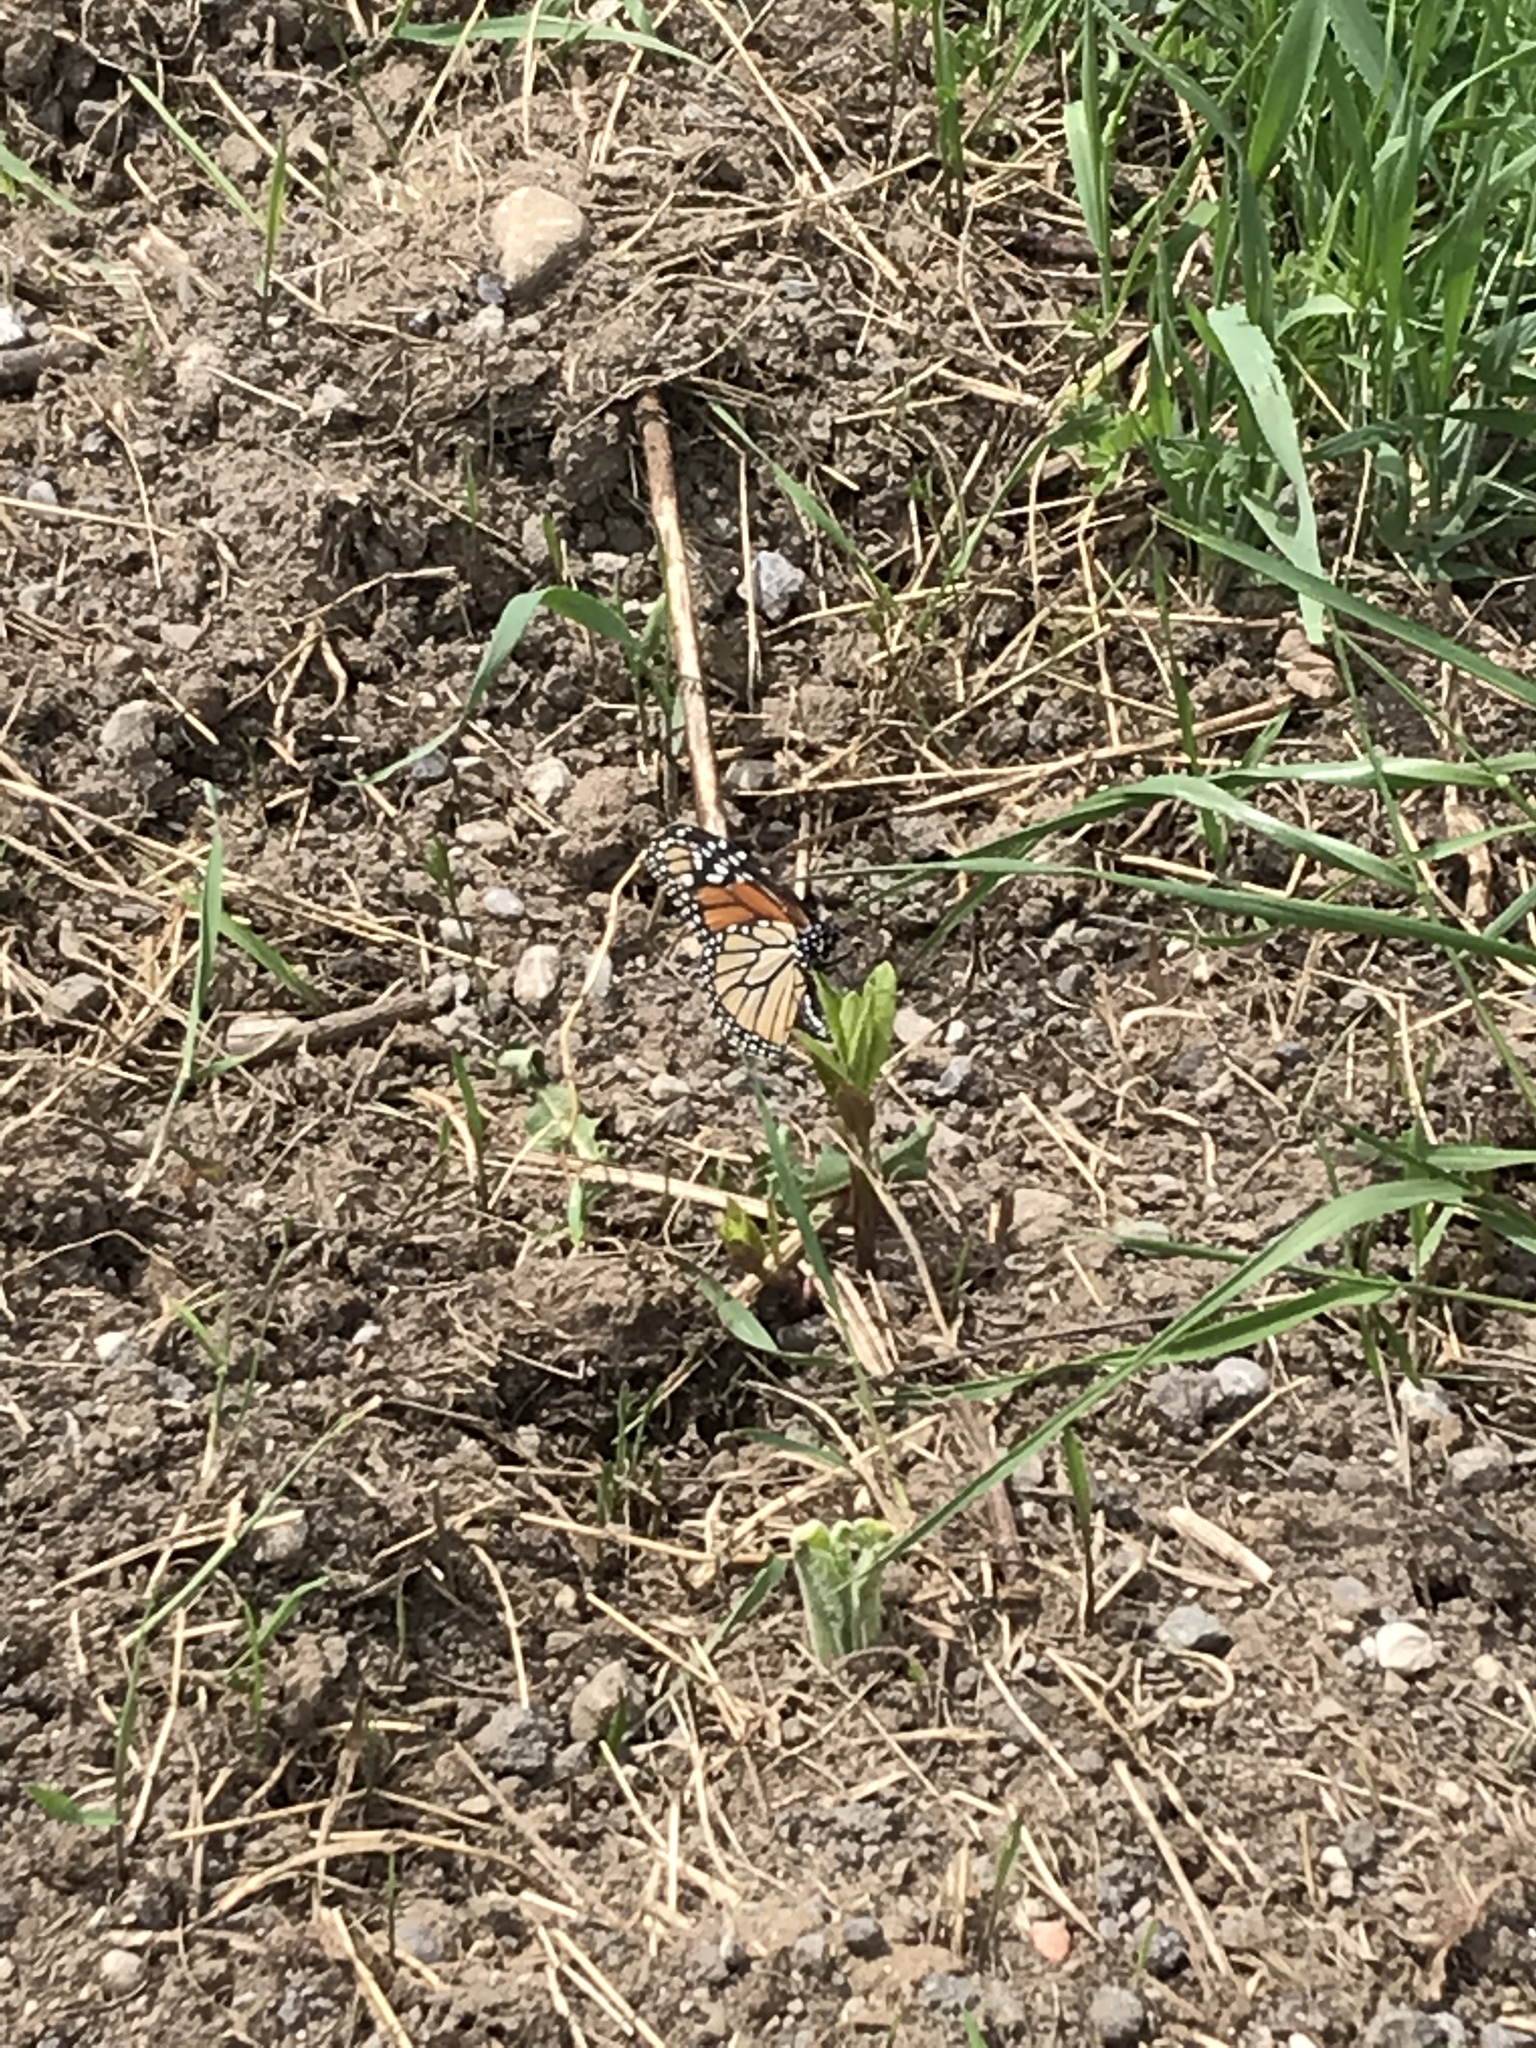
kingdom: Animalia
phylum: Arthropoda
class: Insecta
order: Lepidoptera
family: Nymphalidae
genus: Danaus
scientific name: Danaus plexippus
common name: Monarch
